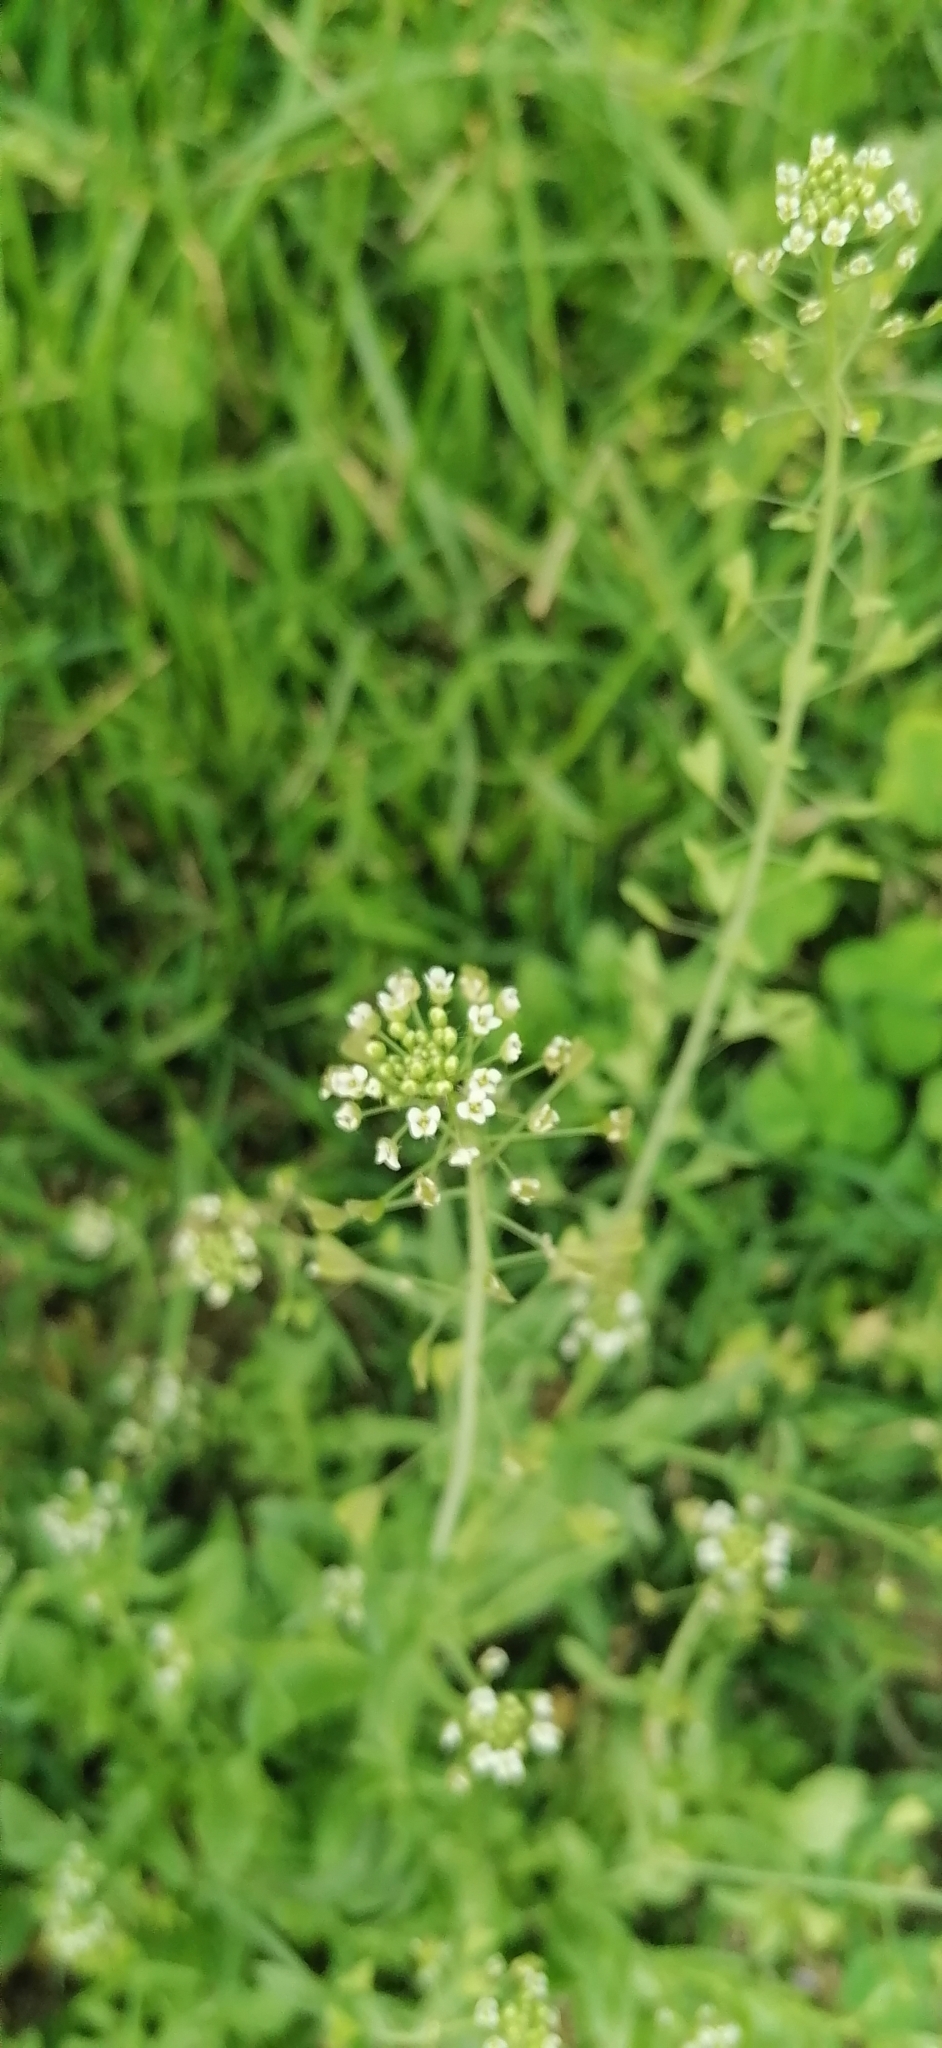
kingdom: Plantae
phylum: Tracheophyta
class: Magnoliopsida
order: Brassicales
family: Brassicaceae
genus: Capsella
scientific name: Capsella bursa-pastoris
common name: Shepherd's purse
